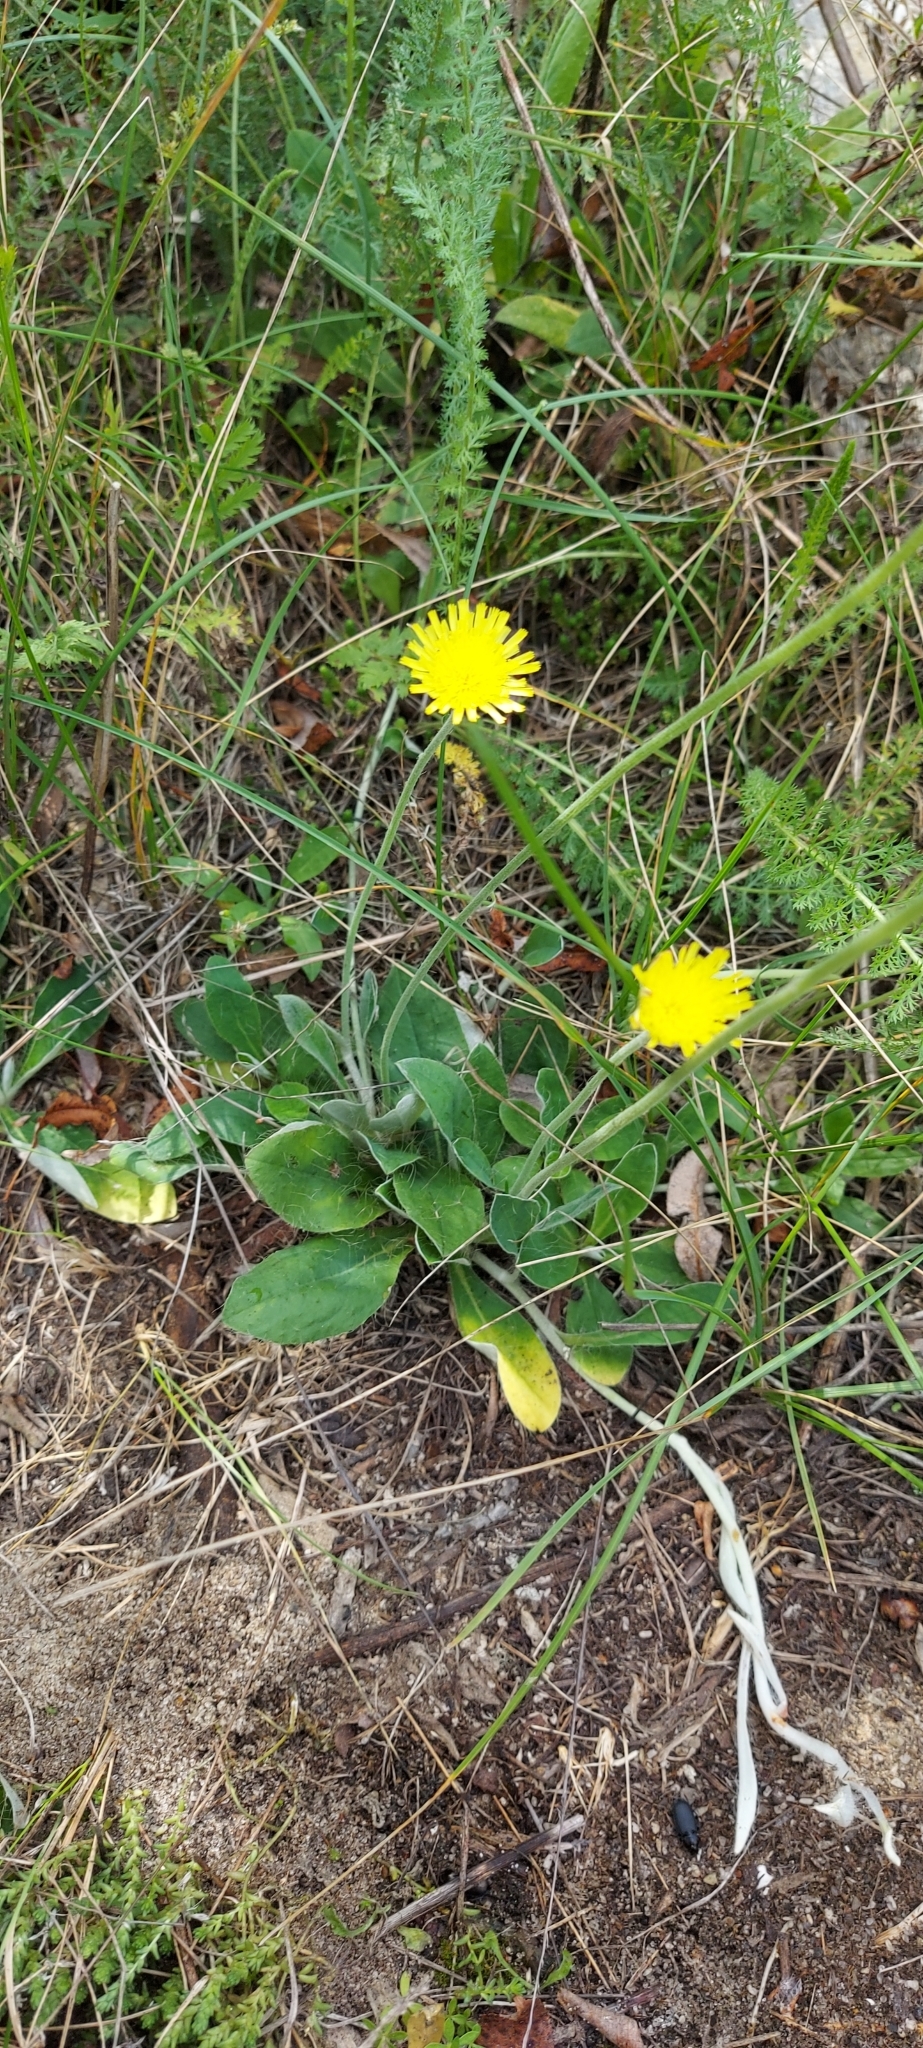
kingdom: Plantae
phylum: Tracheophyta
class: Magnoliopsida
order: Asterales
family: Asteraceae
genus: Pilosella
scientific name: Pilosella officinarum
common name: Mouse-ear hawkweed
